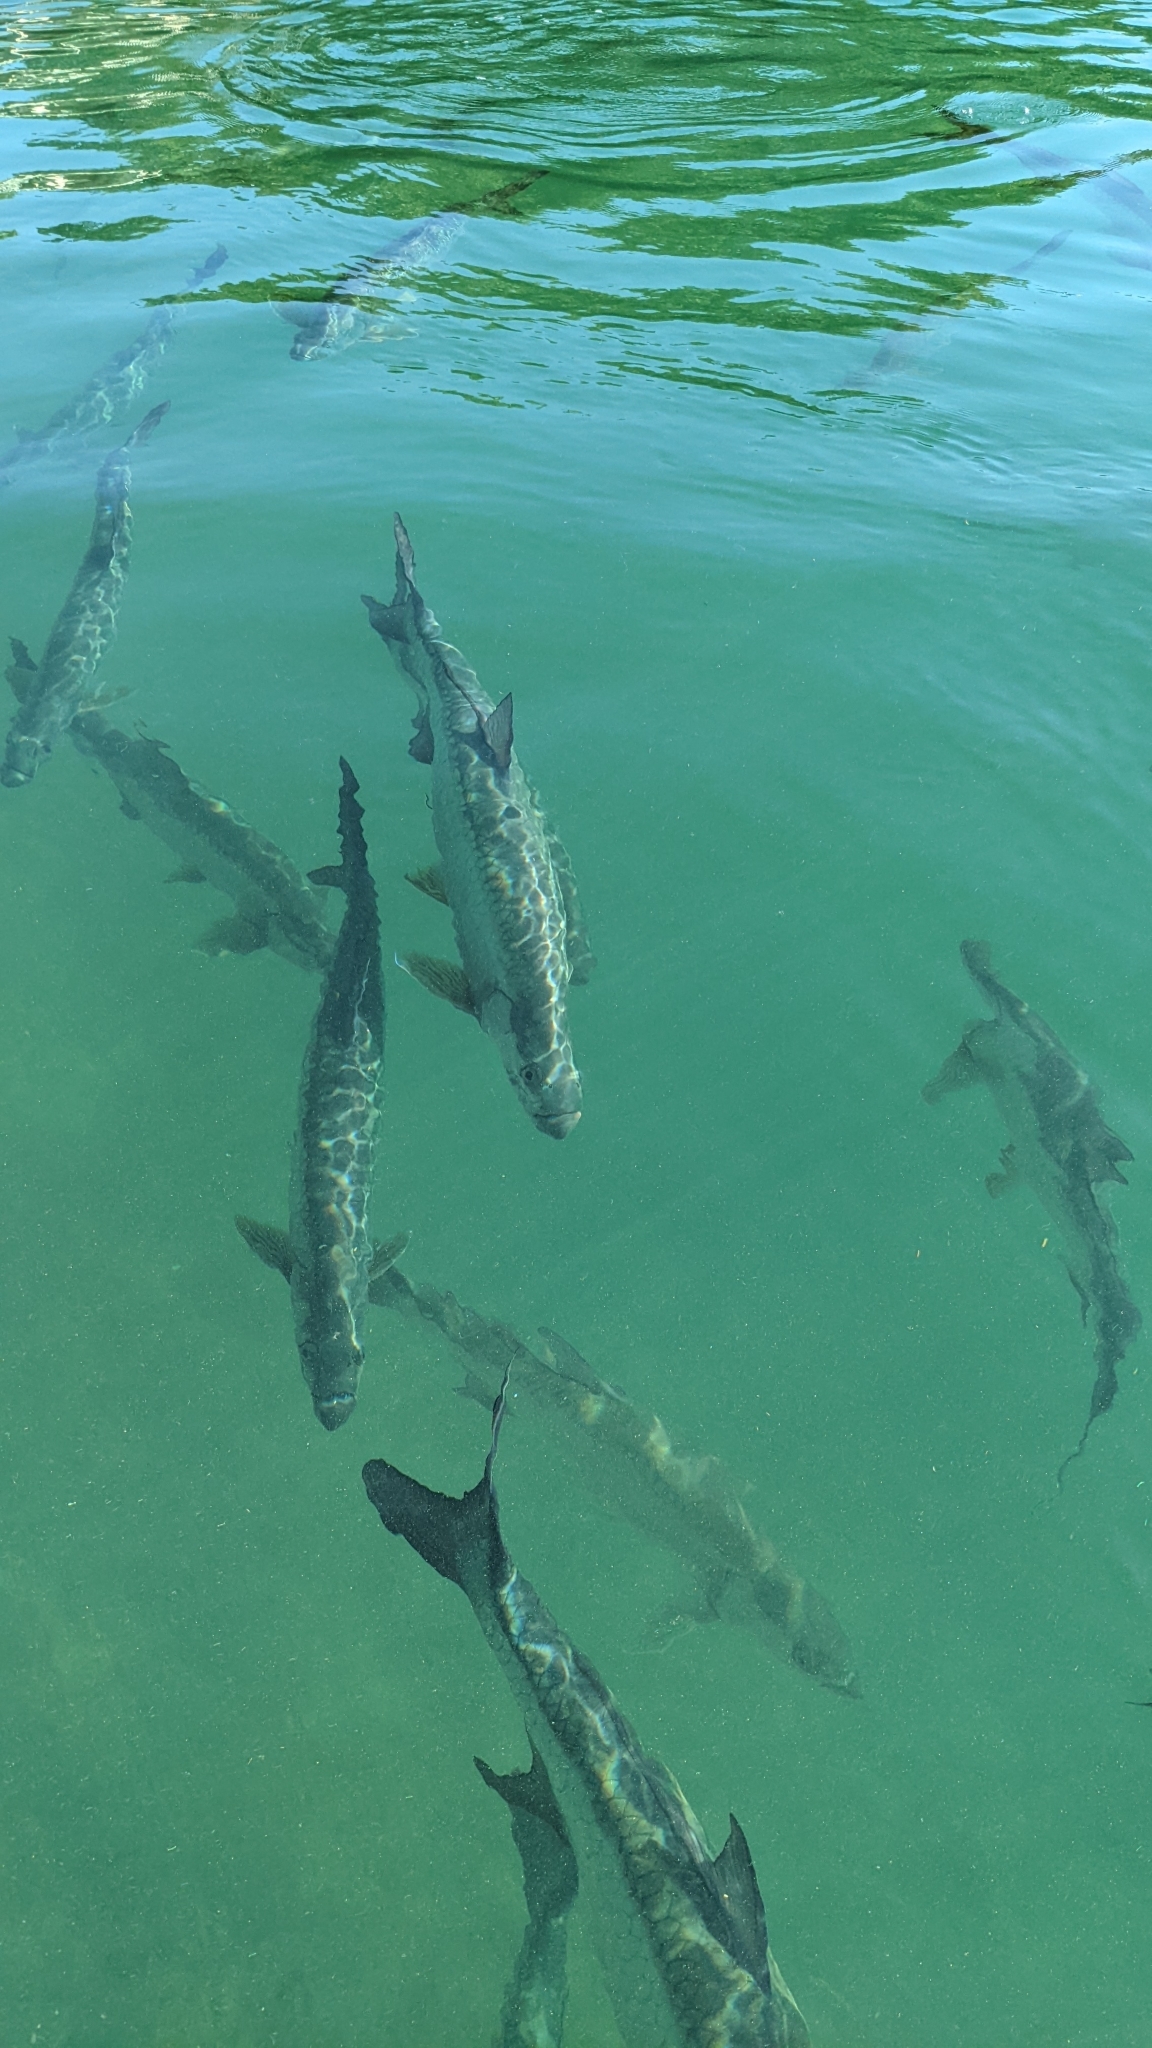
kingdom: Animalia
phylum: Chordata
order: Elopiformes
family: Megalopidae
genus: Megalops
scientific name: Megalops atlanticus
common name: Tarpon
